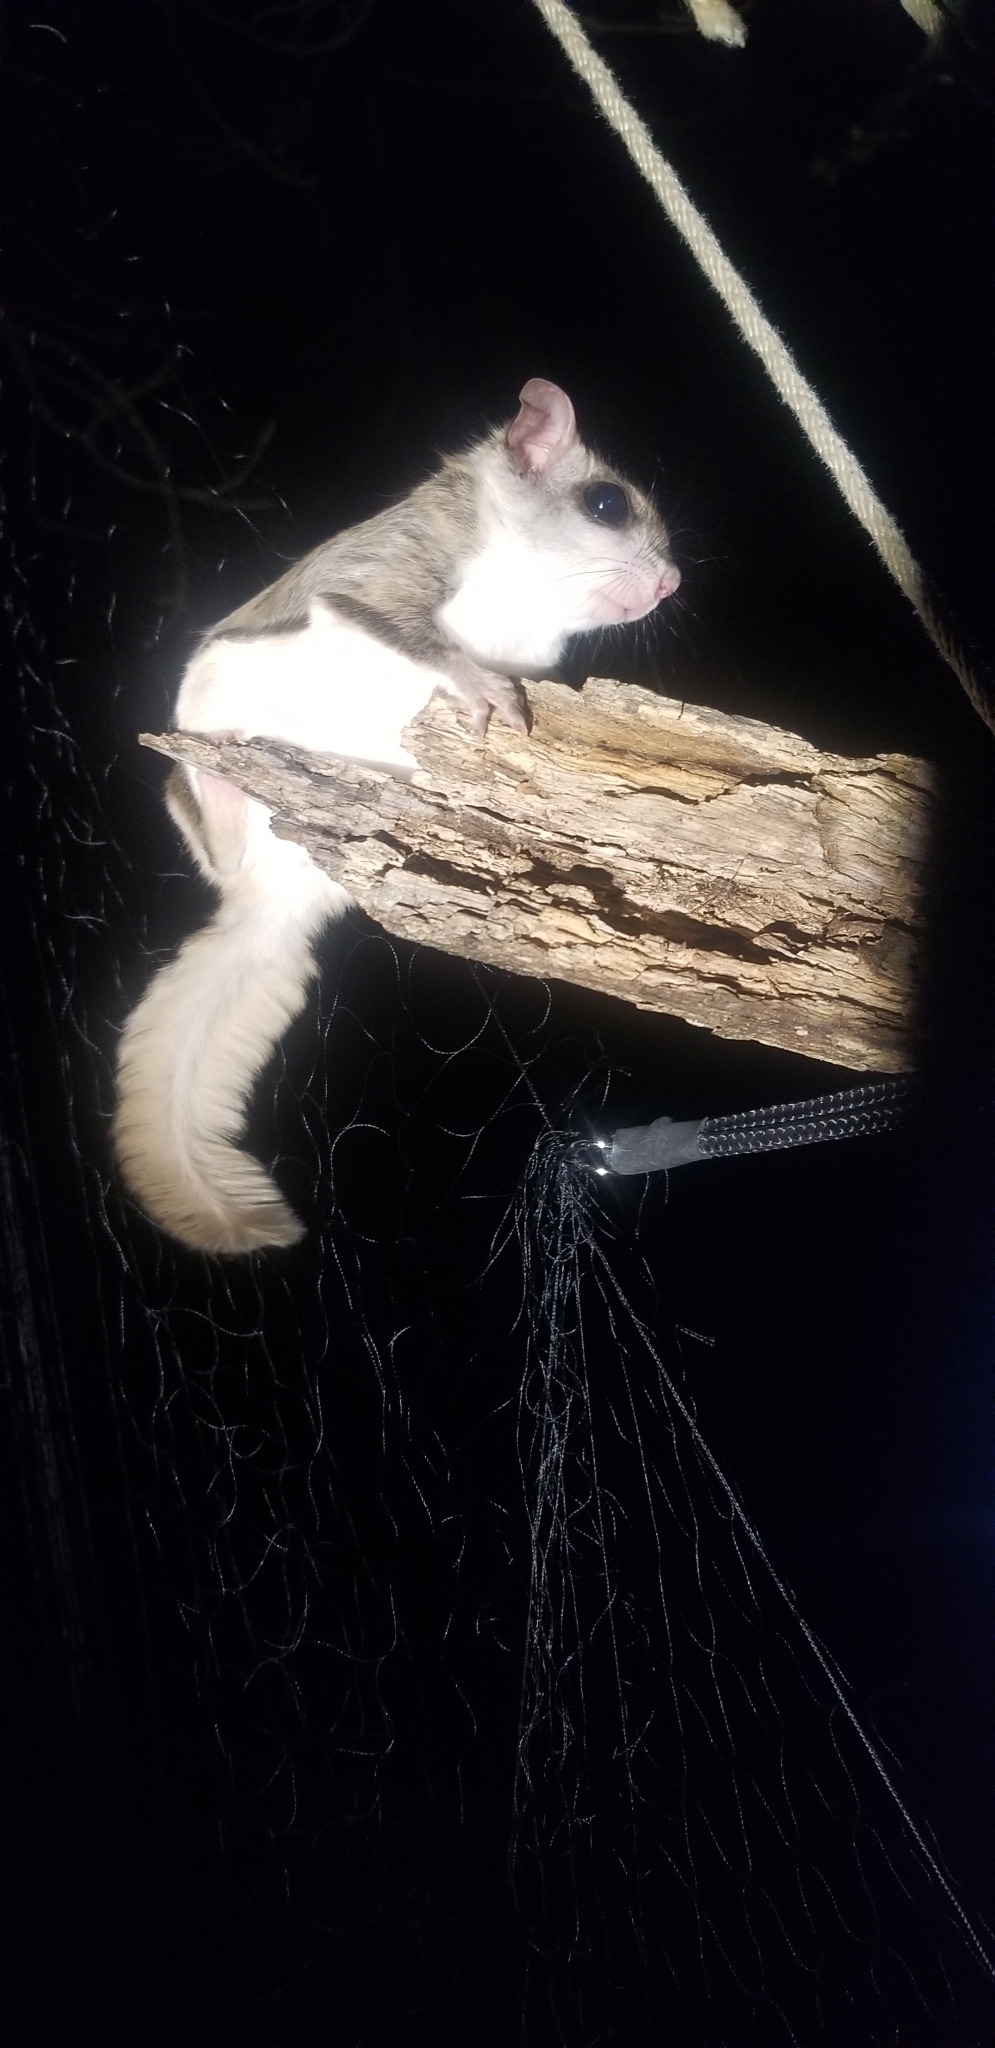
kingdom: Animalia
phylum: Chordata
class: Mammalia
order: Rodentia
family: Sciuridae
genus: Glaucomys
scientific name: Glaucomys volans
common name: Southern flying squirrel
